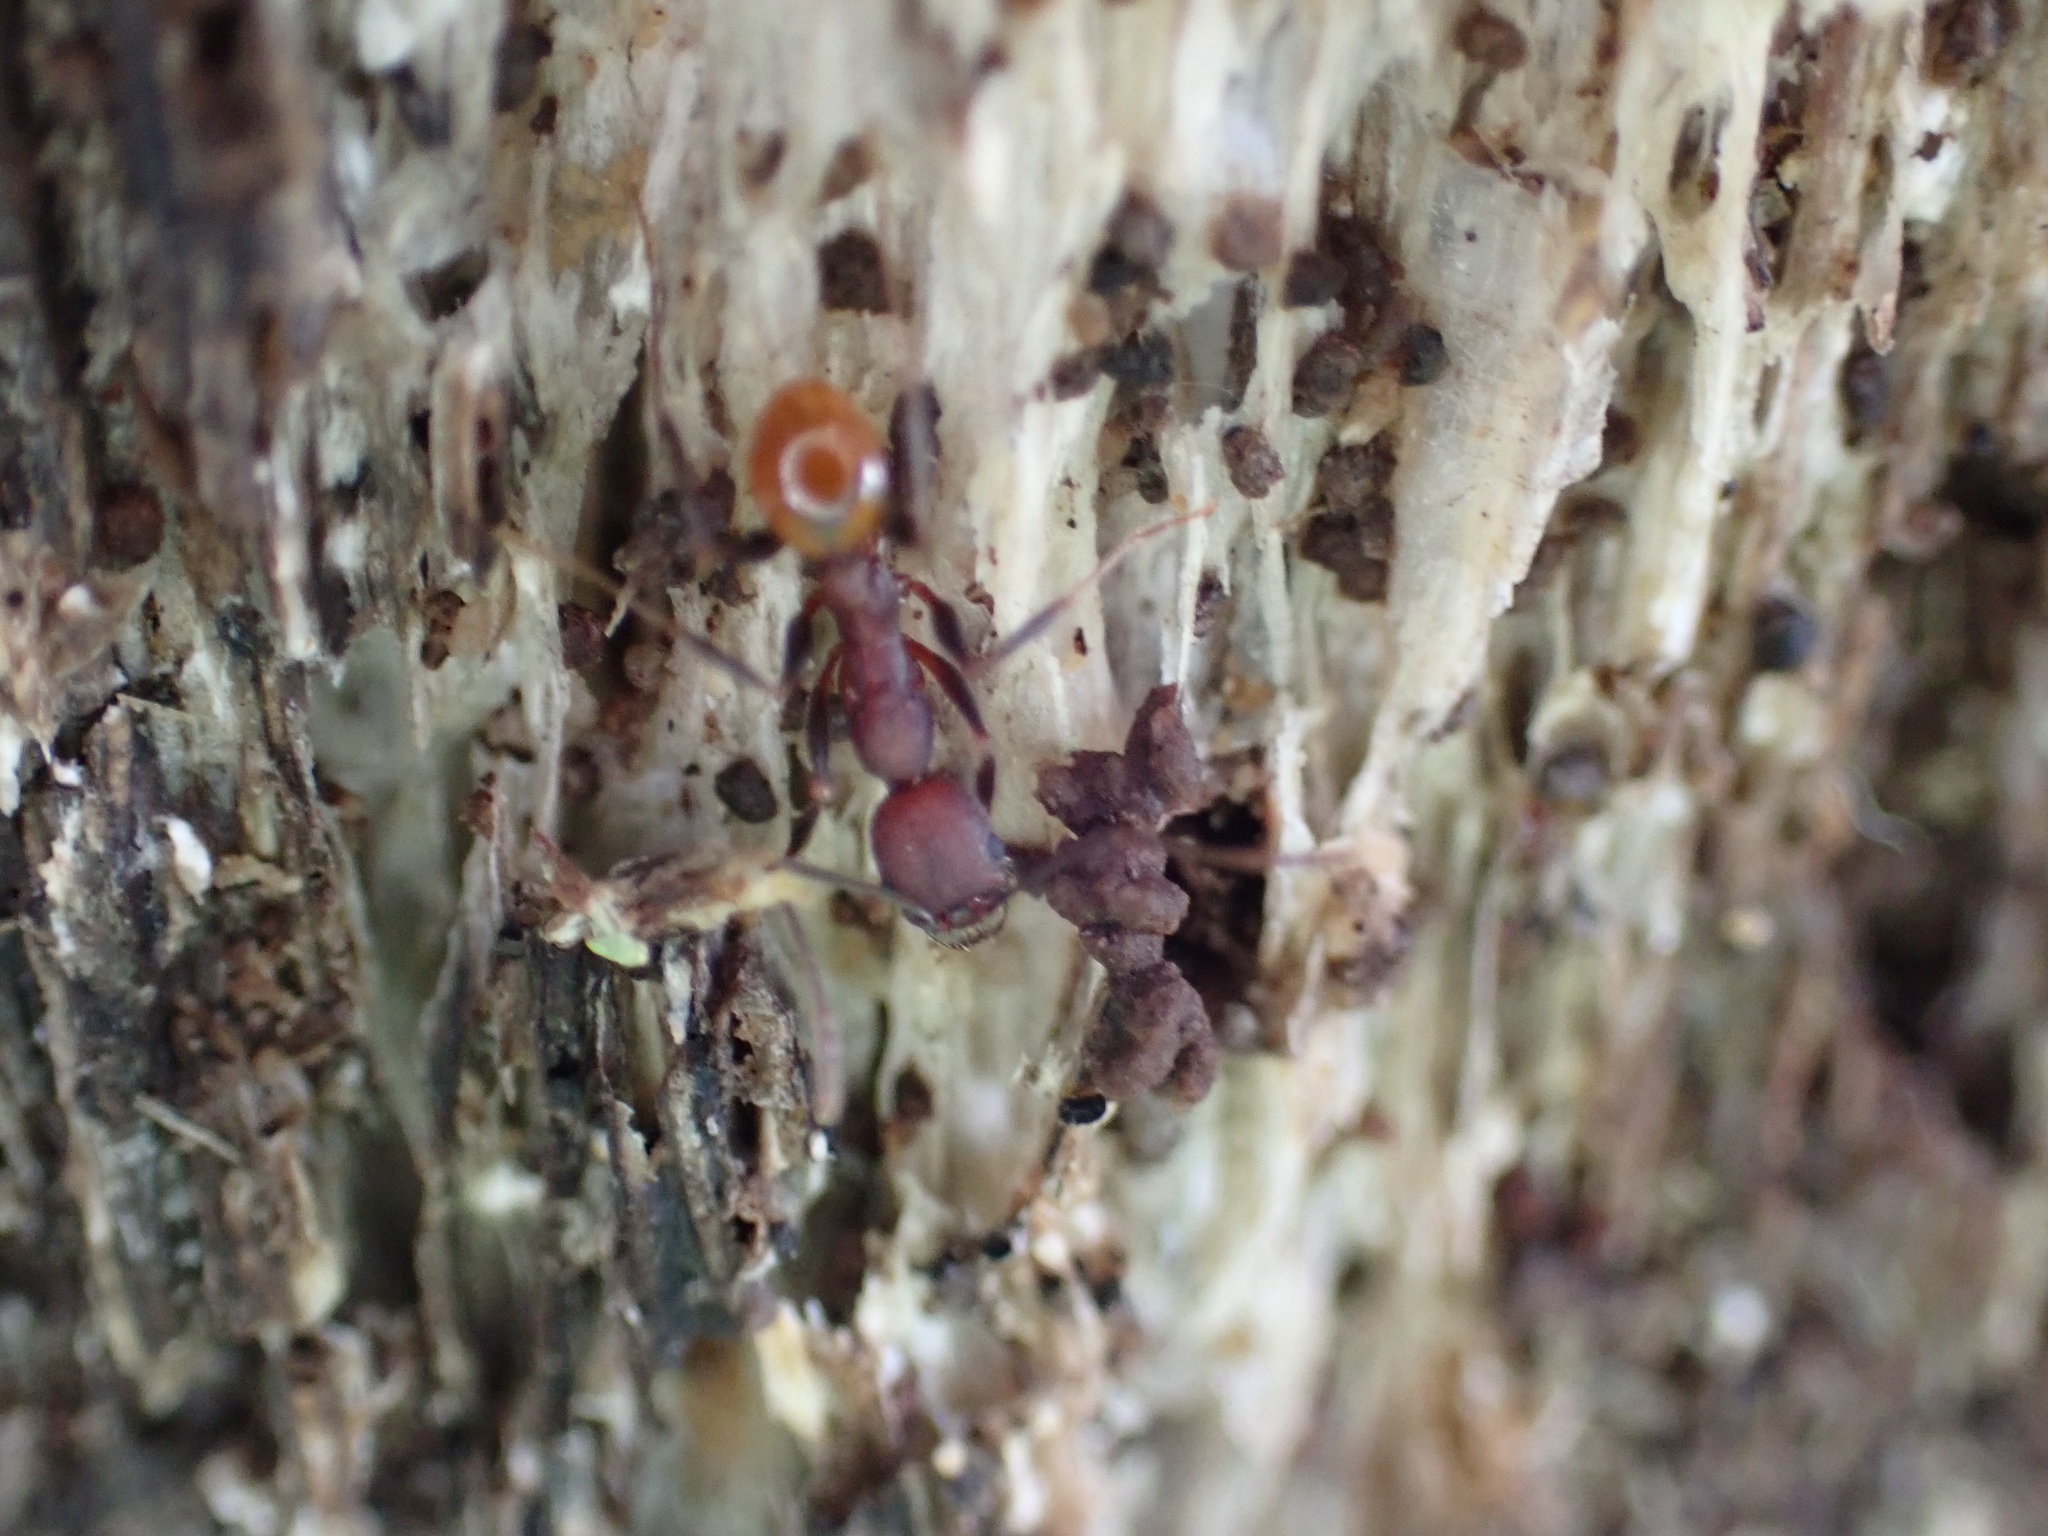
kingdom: Animalia
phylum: Arthropoda
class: Insecta
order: Hymenoptera
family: Formicidae
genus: Aphaenogaster
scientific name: Aphaenogaster lamellidens
